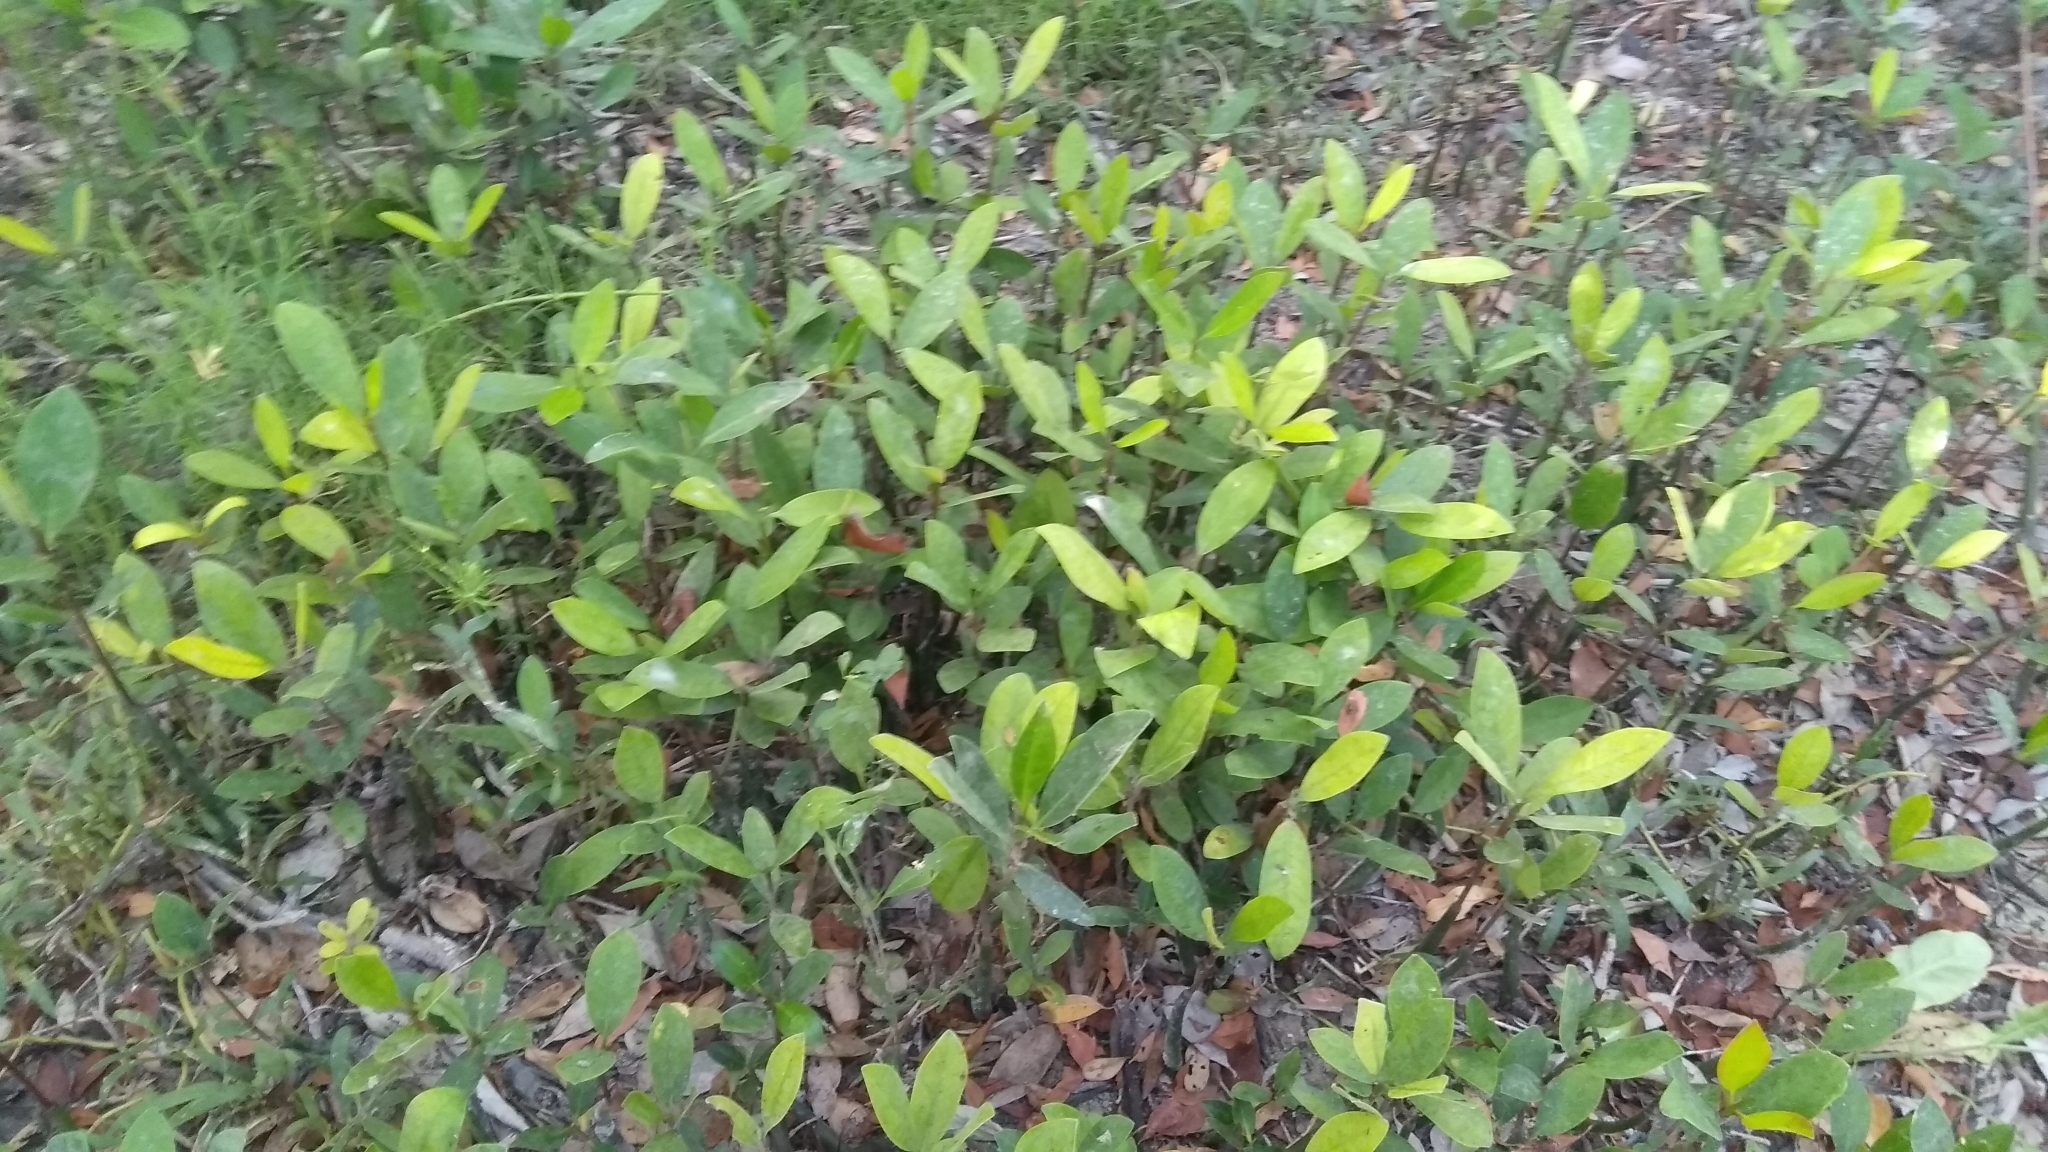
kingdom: Plantae
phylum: Tracheophyta
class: Magnoliopsida
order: Lamiales
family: Acanthaceae
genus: Avicennia
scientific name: Avicennia germinans
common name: Black mangrove
